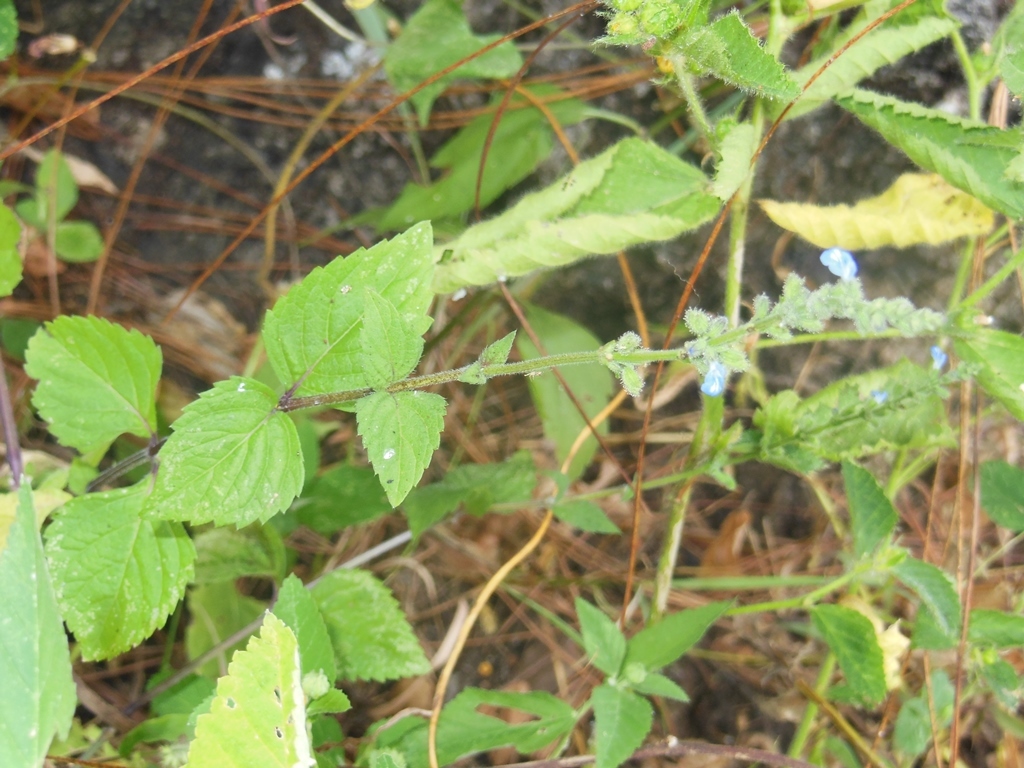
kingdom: Plantae
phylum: Tracheophyta
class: Magnoliopsida
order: Lamiales
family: Lamiaceae
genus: Salvia
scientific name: Salvia misella
